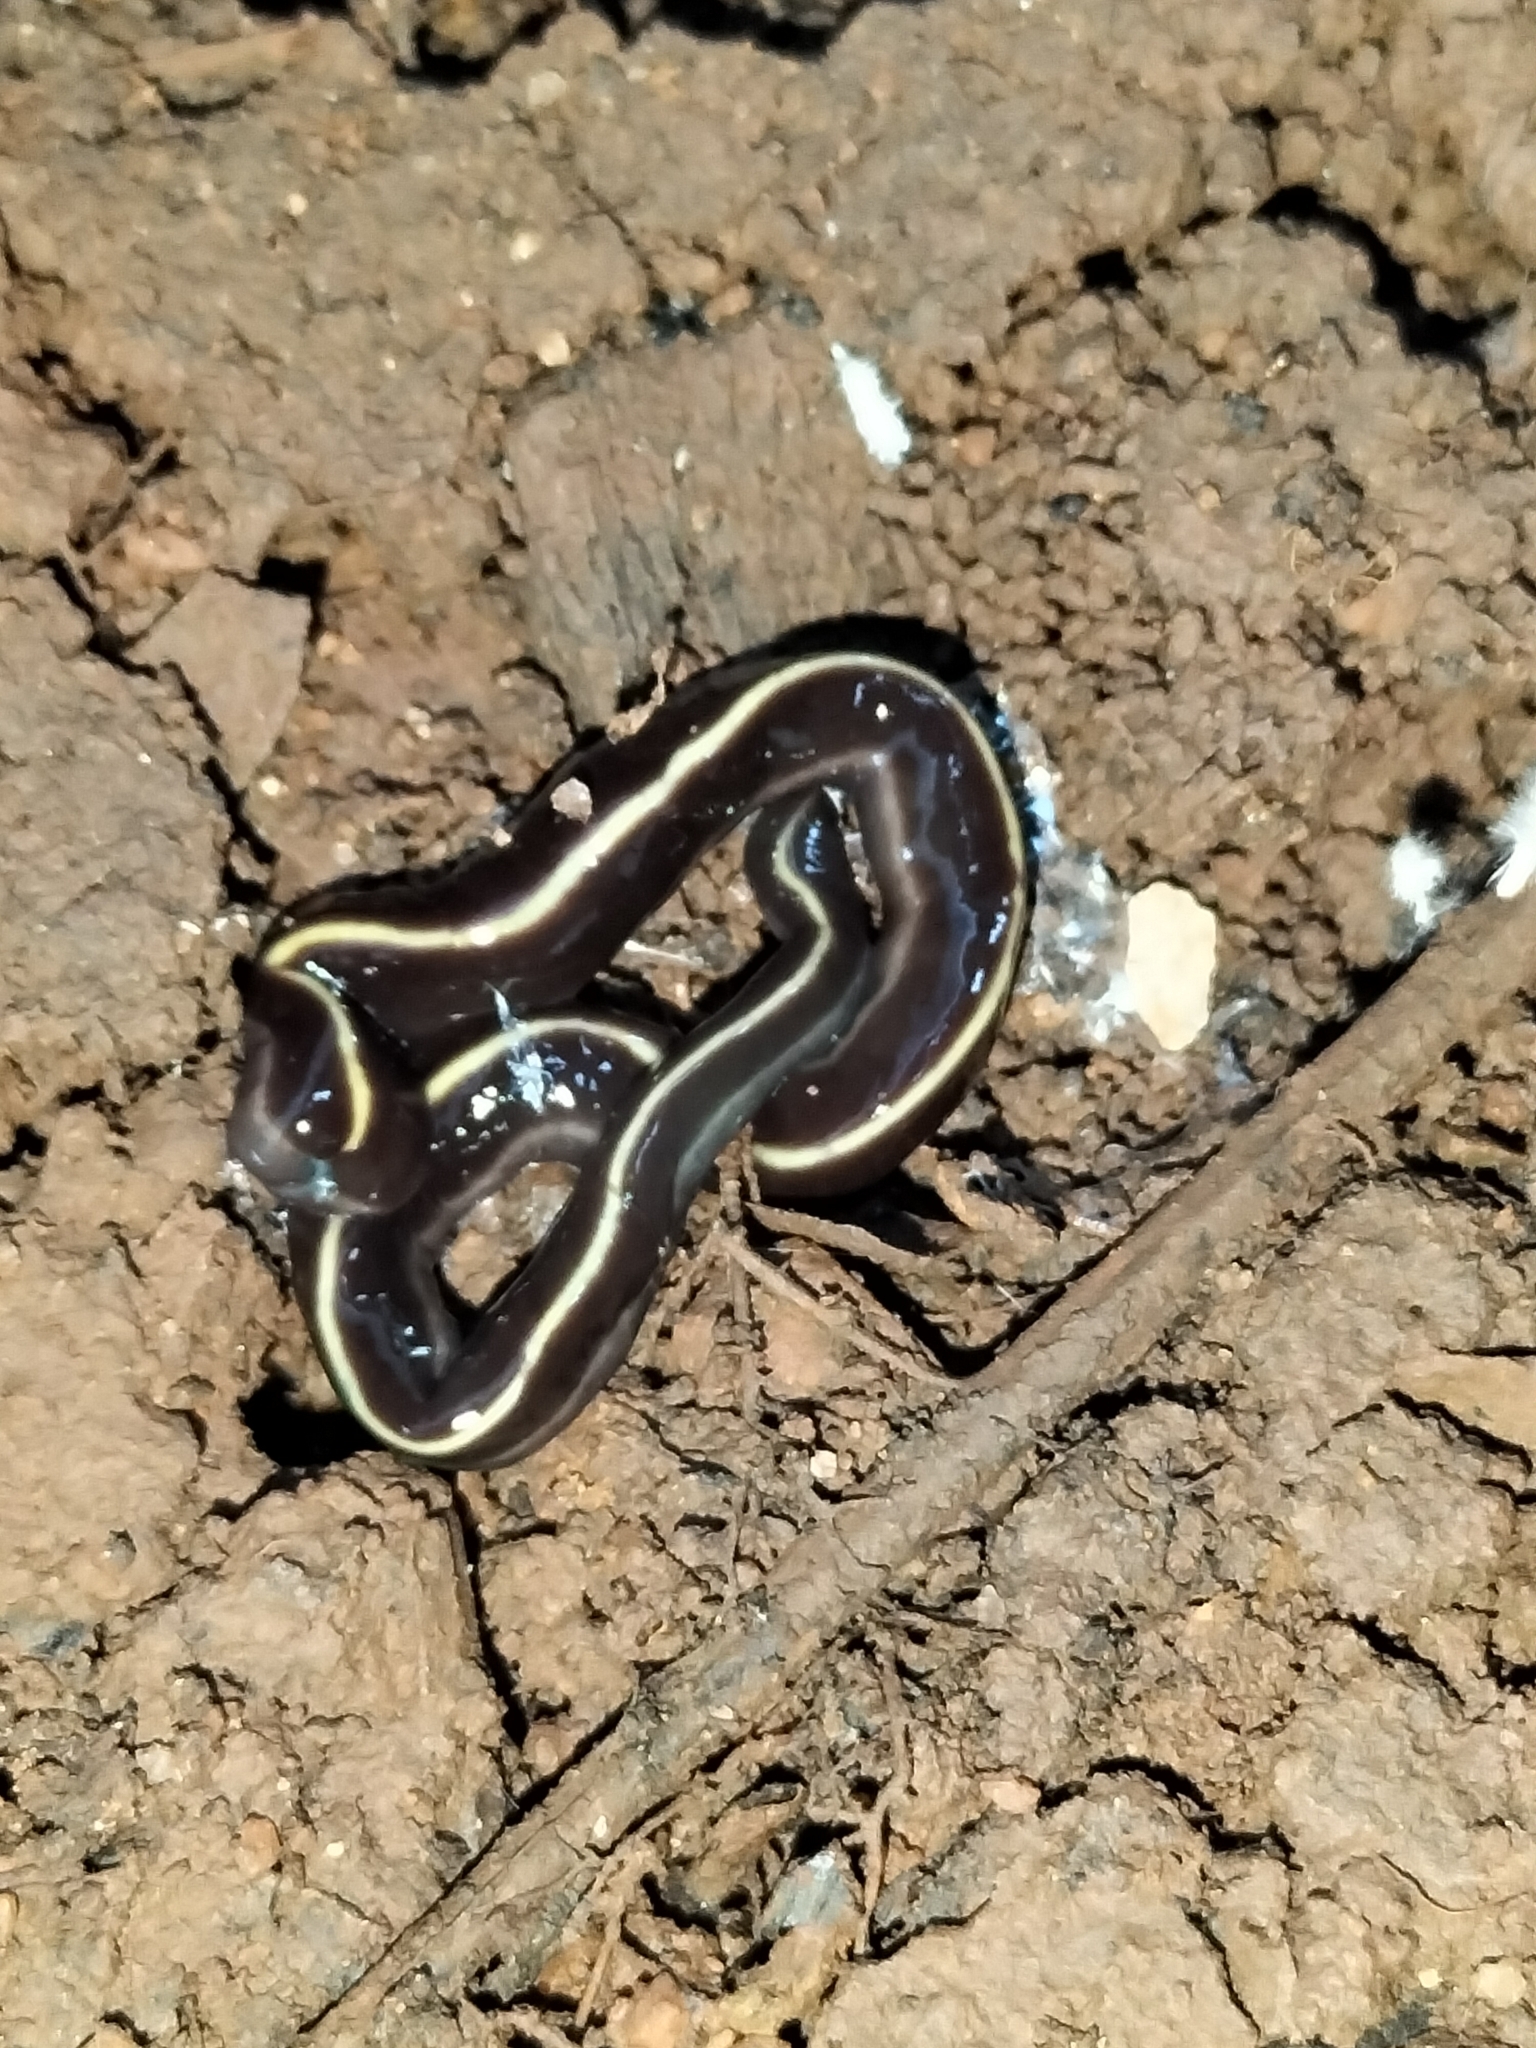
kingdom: Animalia
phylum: Platyhelminthes
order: Tricladida
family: Geoplanidae
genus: Caenoplana
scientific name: Caenoplana coerulea
